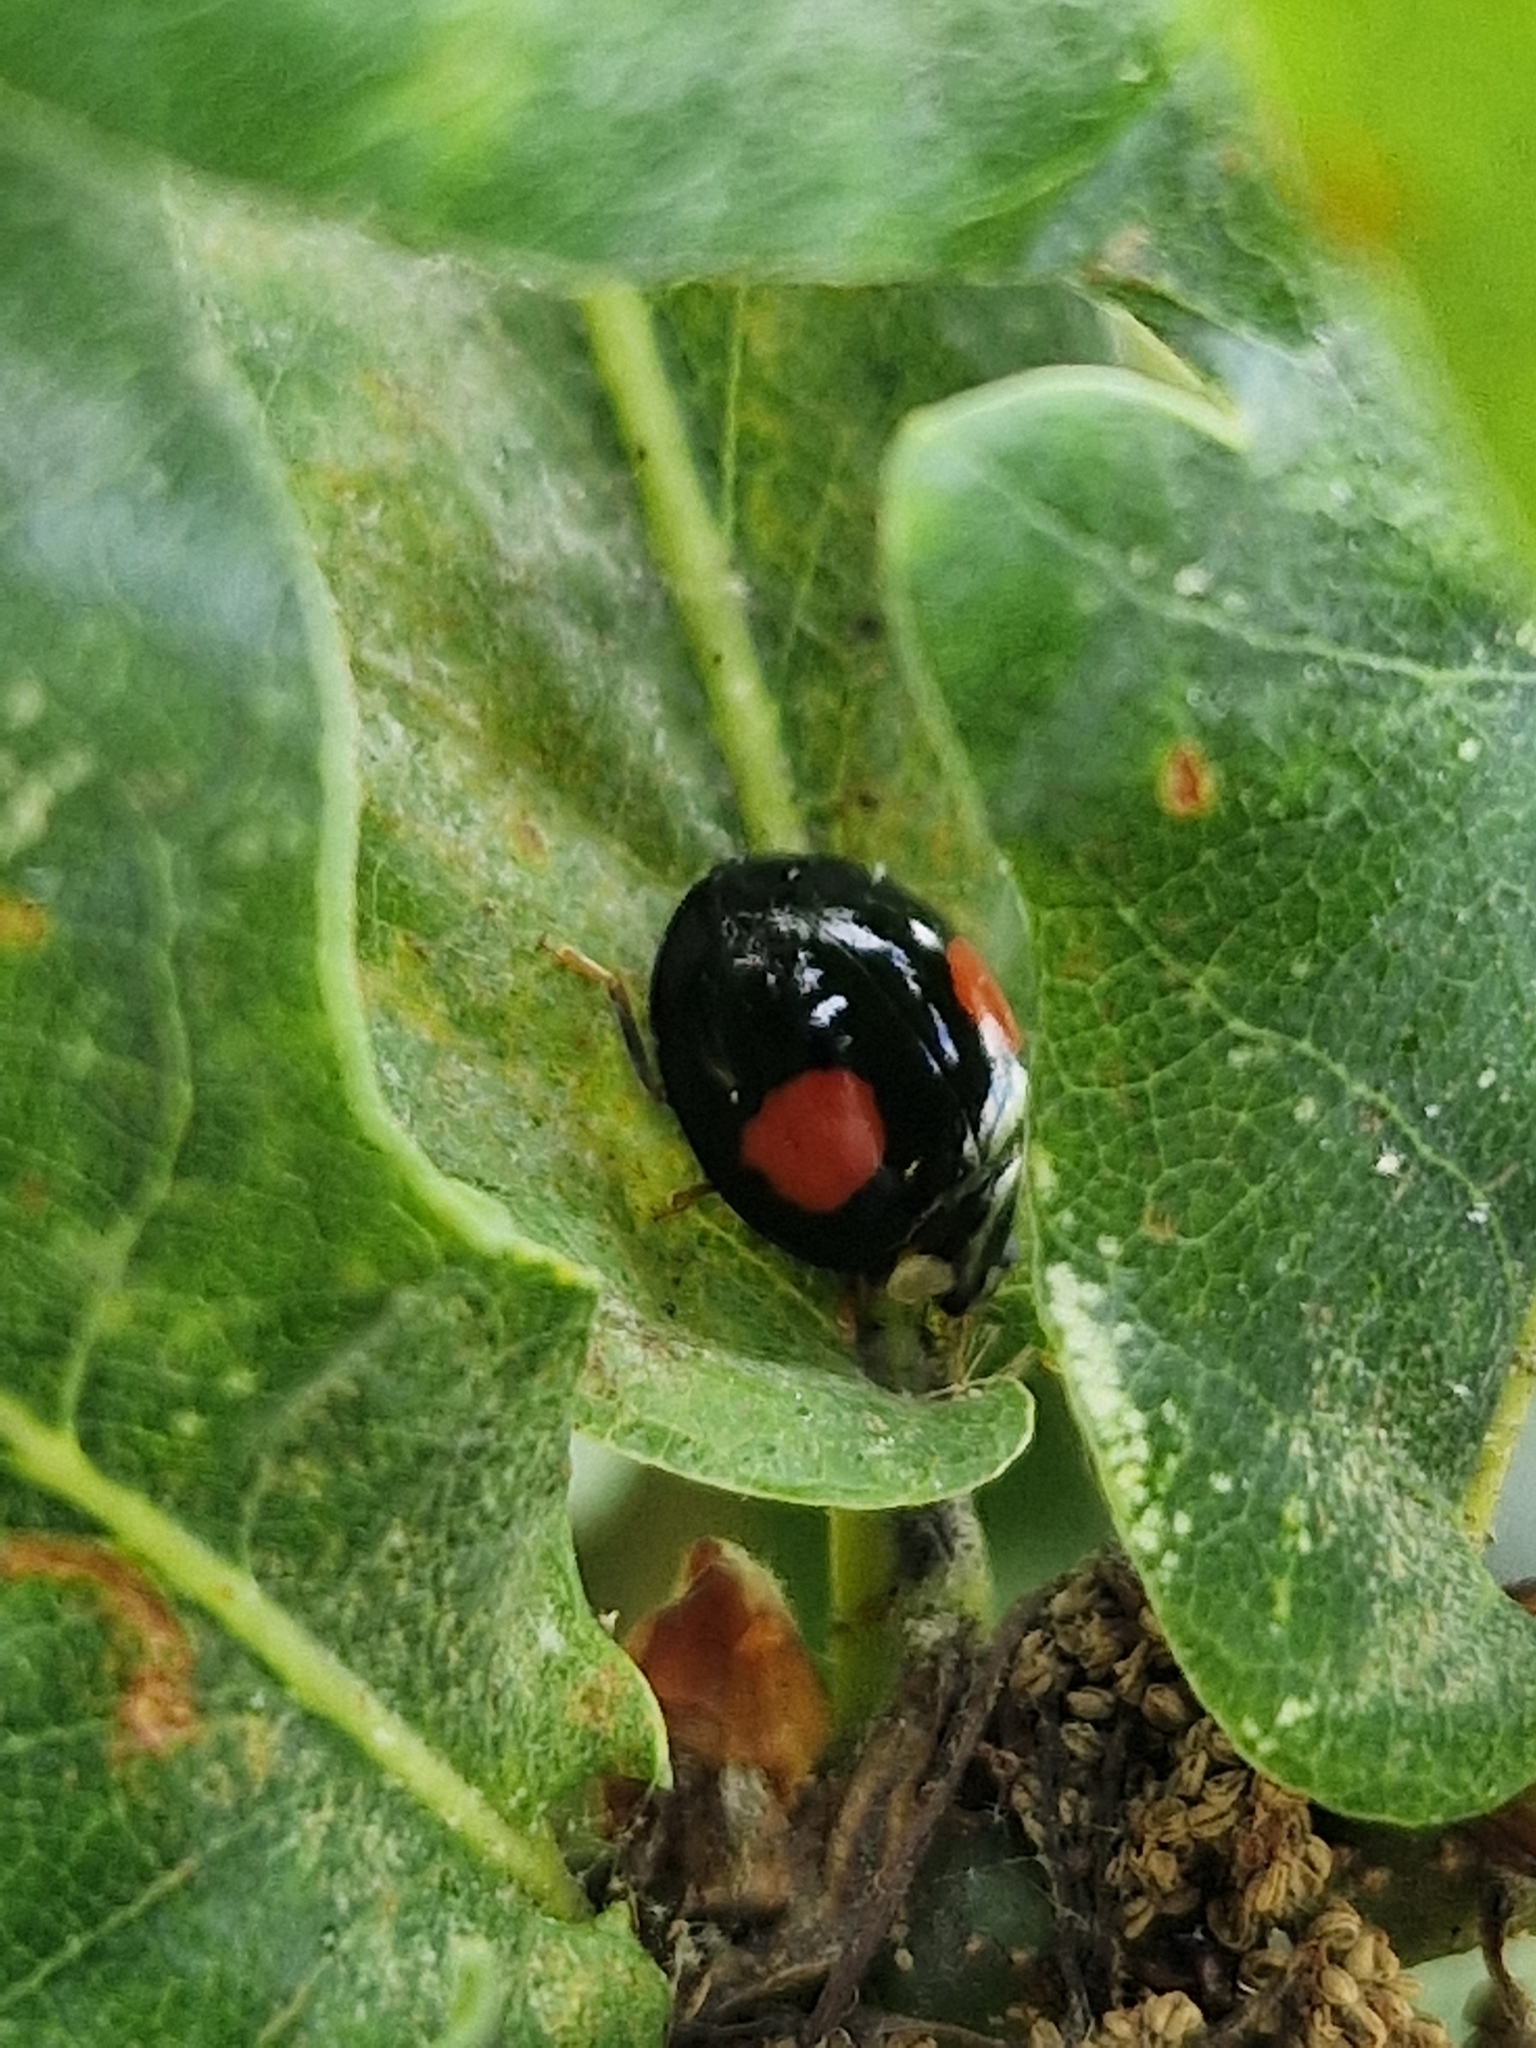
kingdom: Animalia
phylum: Arthropoda
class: Insecta
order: Coleoptera
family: Coccinellidae
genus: Harmonia
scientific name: Harmonia axyridis
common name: Harlequin ladybird
